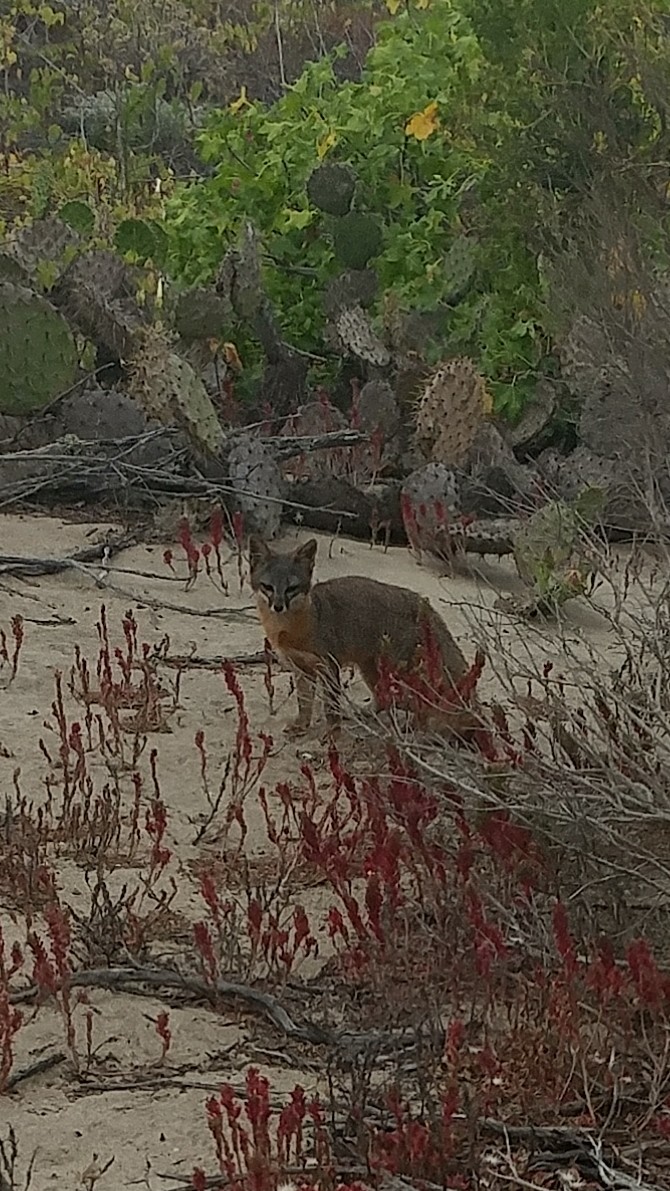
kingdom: Animalia
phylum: Chordata
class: Mammalia
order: Carnivora
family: Canidae
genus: Urocyon
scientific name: Urocyon littoralis
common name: Island gray fox
